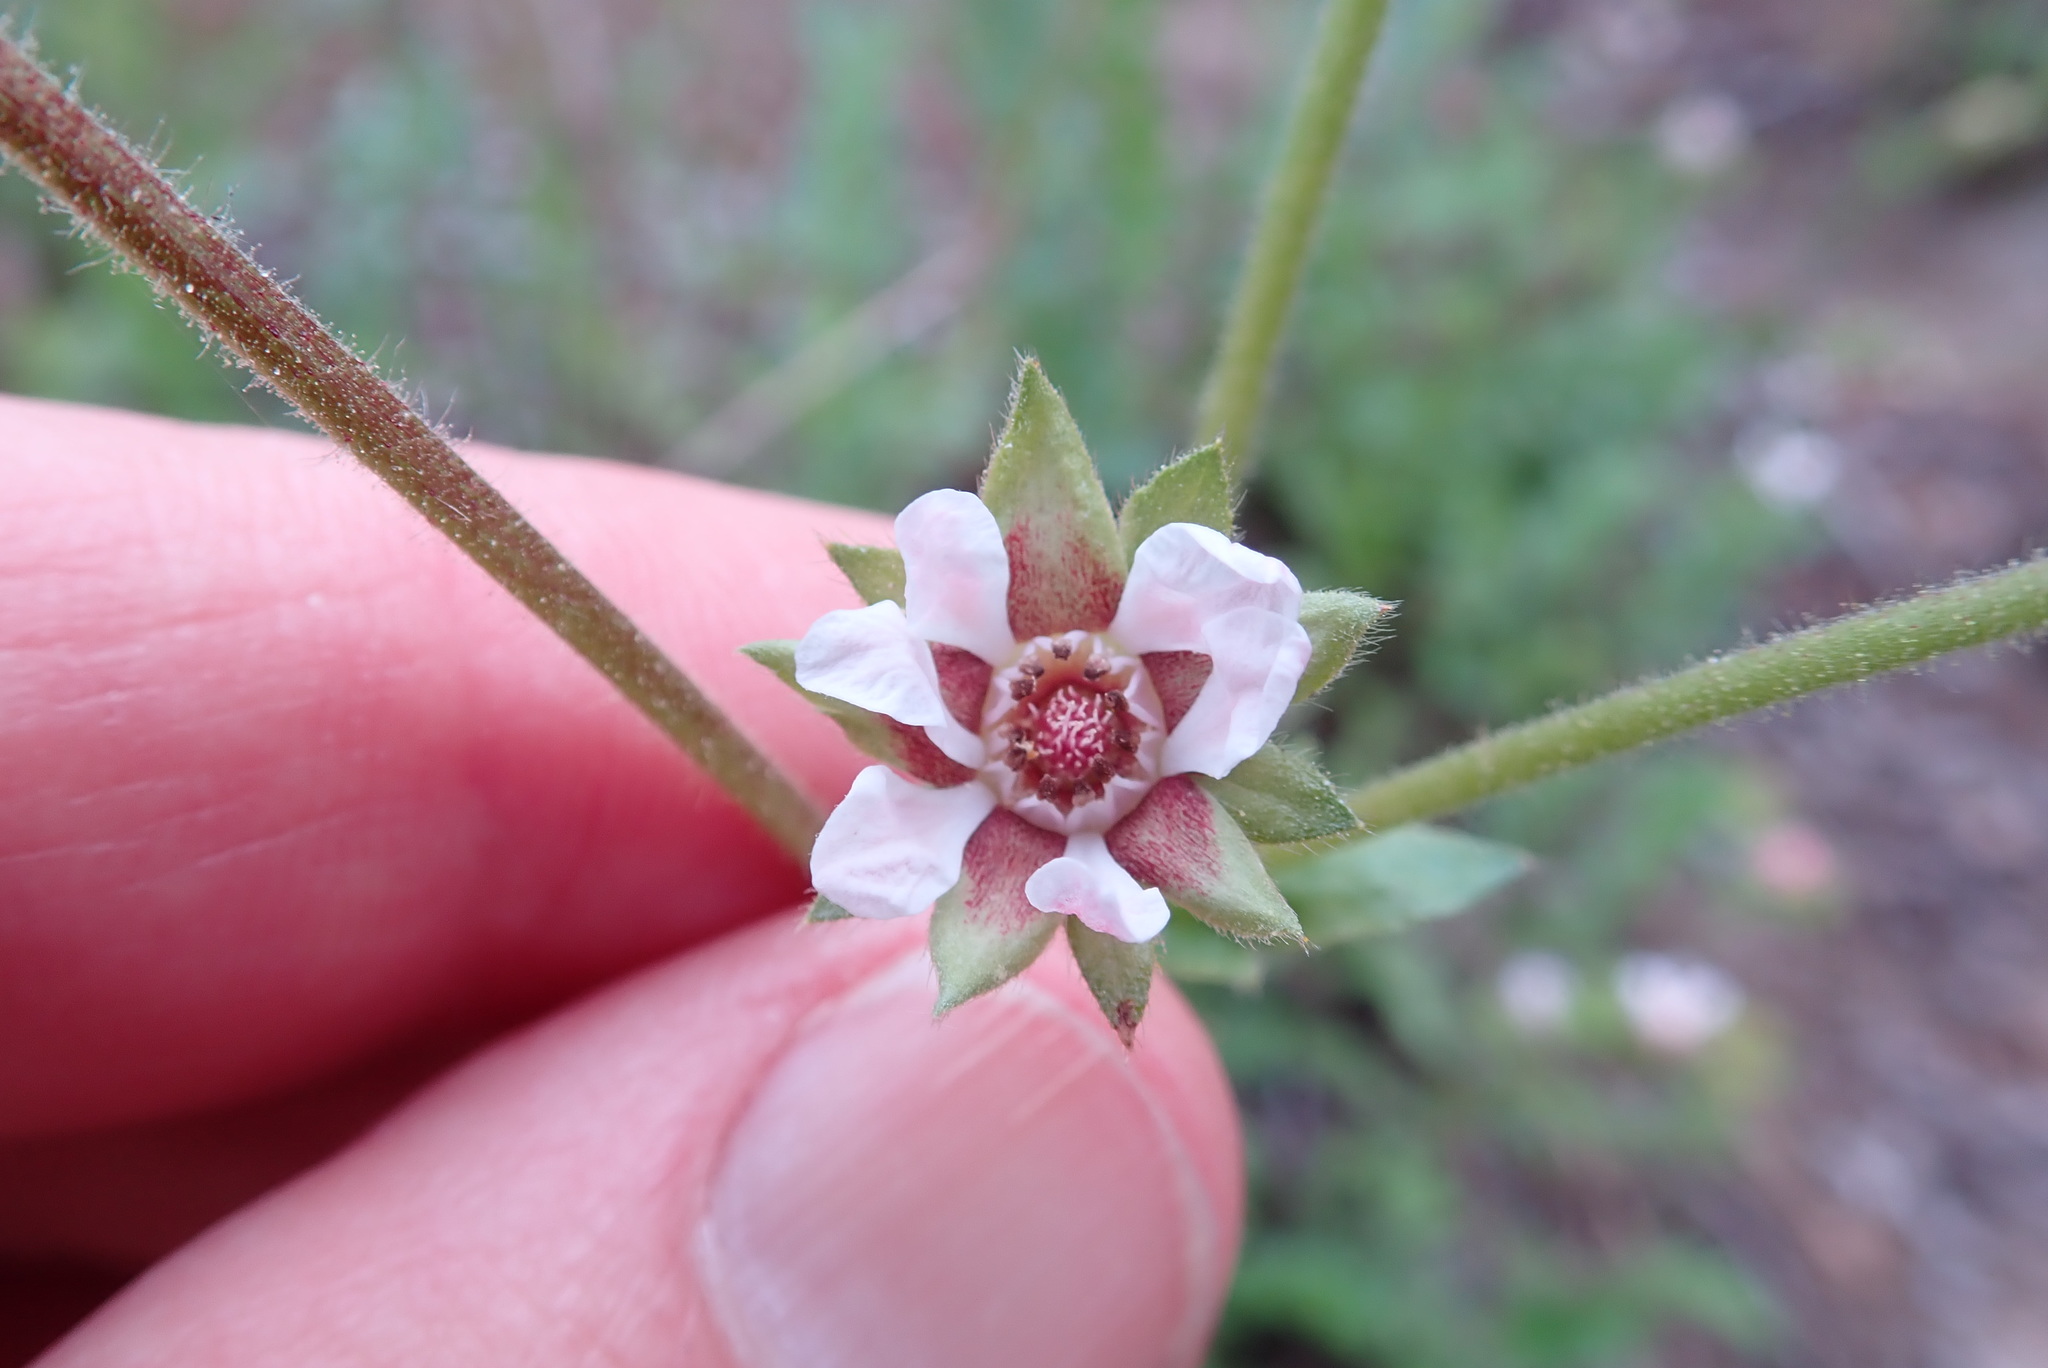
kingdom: Plantae
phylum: Tracheophyta
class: Magnoliopsida
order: Rosales
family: Rosaceae
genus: Potentilla
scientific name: Potentilla
